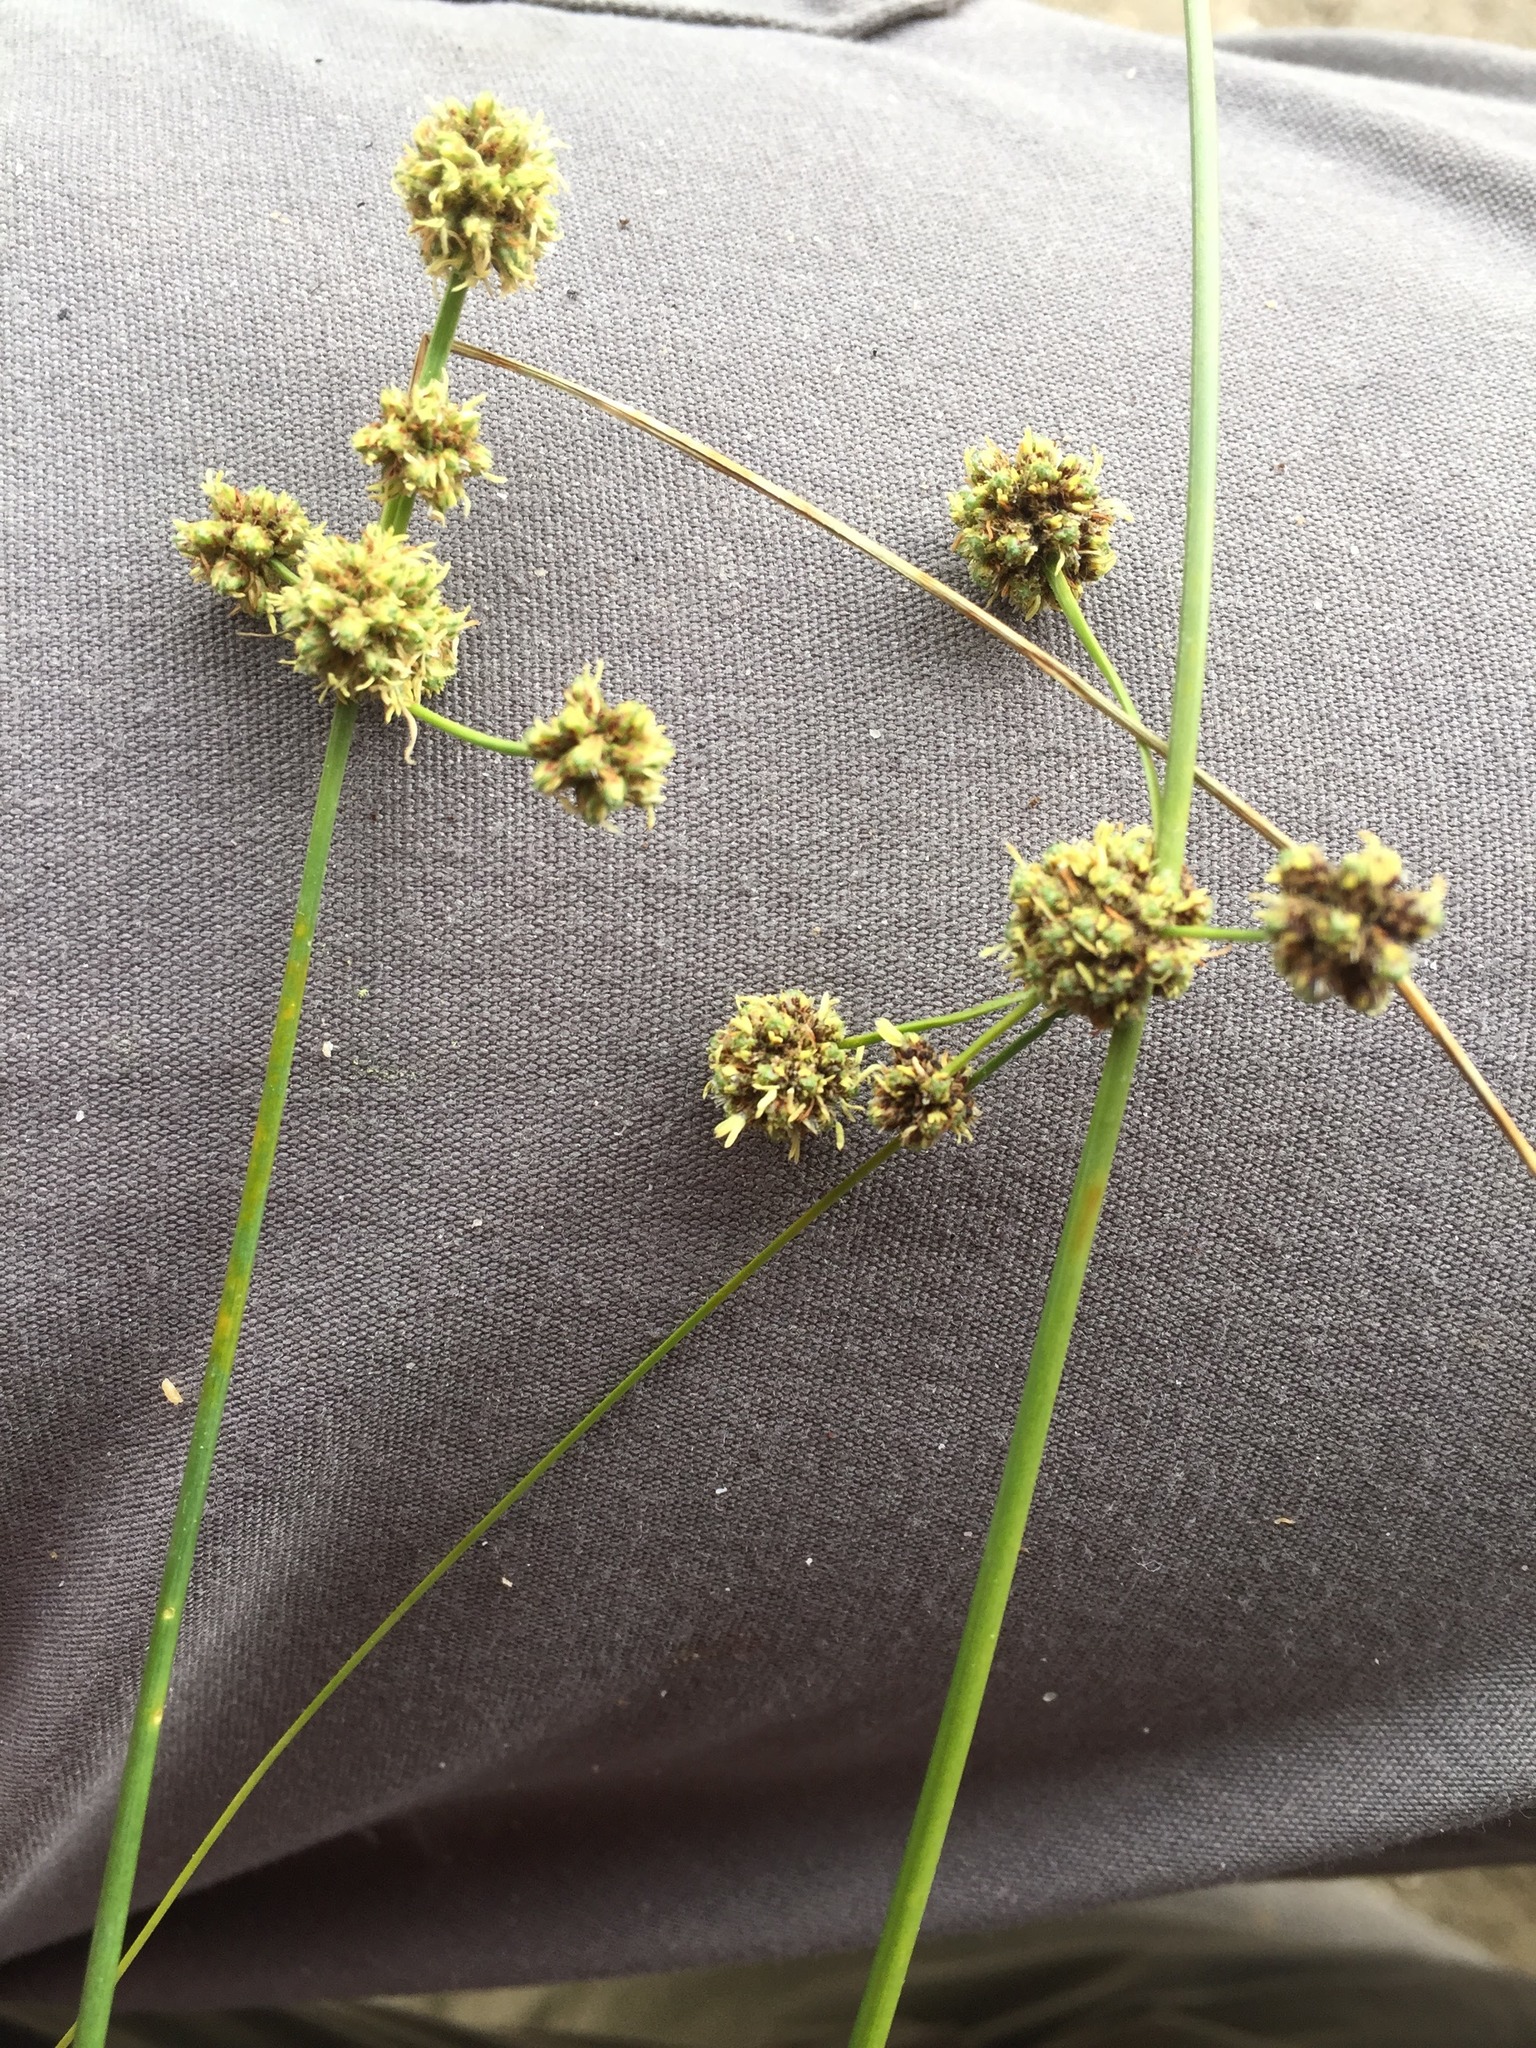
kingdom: Plantae
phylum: Tracheophyta
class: Liliopsida
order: Poales
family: Cyperaceae
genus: Scirpoides
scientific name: Scirpoides holoschoenus
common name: Round-headed club-rush
